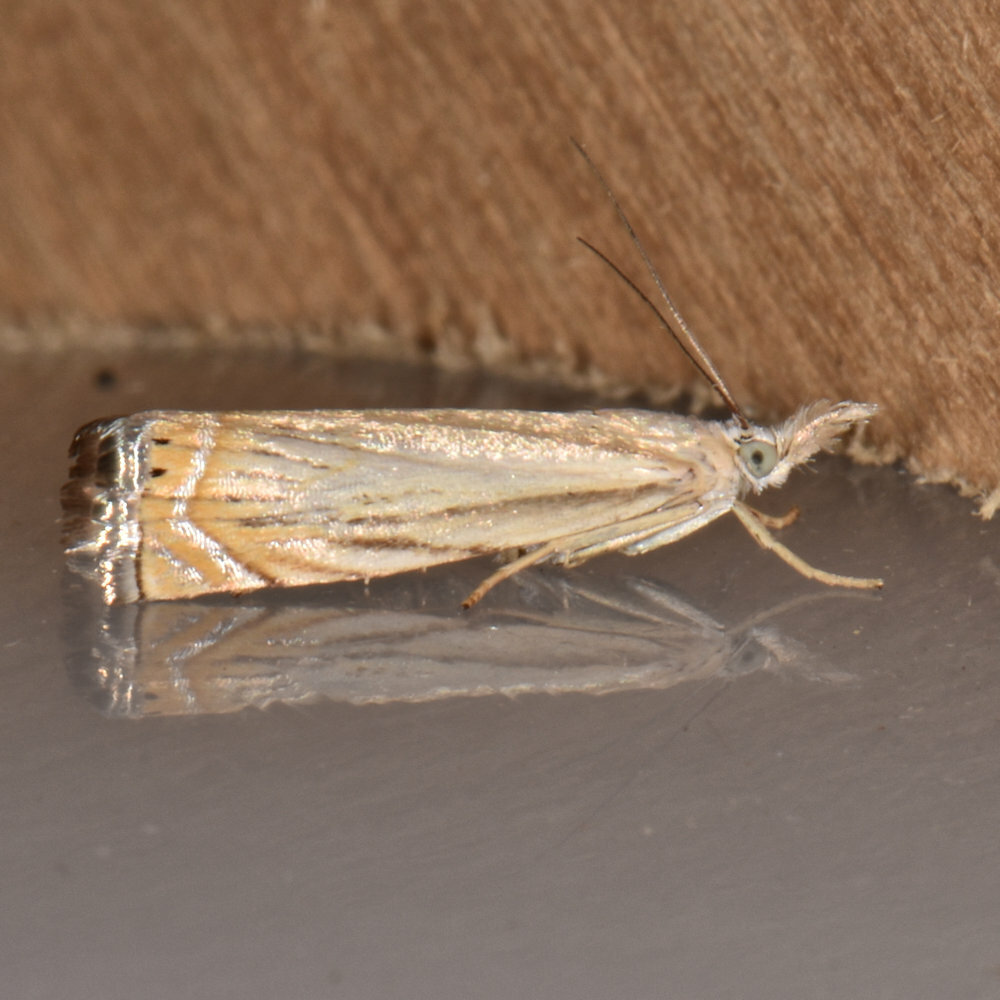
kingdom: Animalia
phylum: Arthropoda
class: Insecta
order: Lepidoptera
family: Crambidae
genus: Chrysoteuchia
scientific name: Chrysoteuchia topiarius
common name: Topiary grass-veneer
